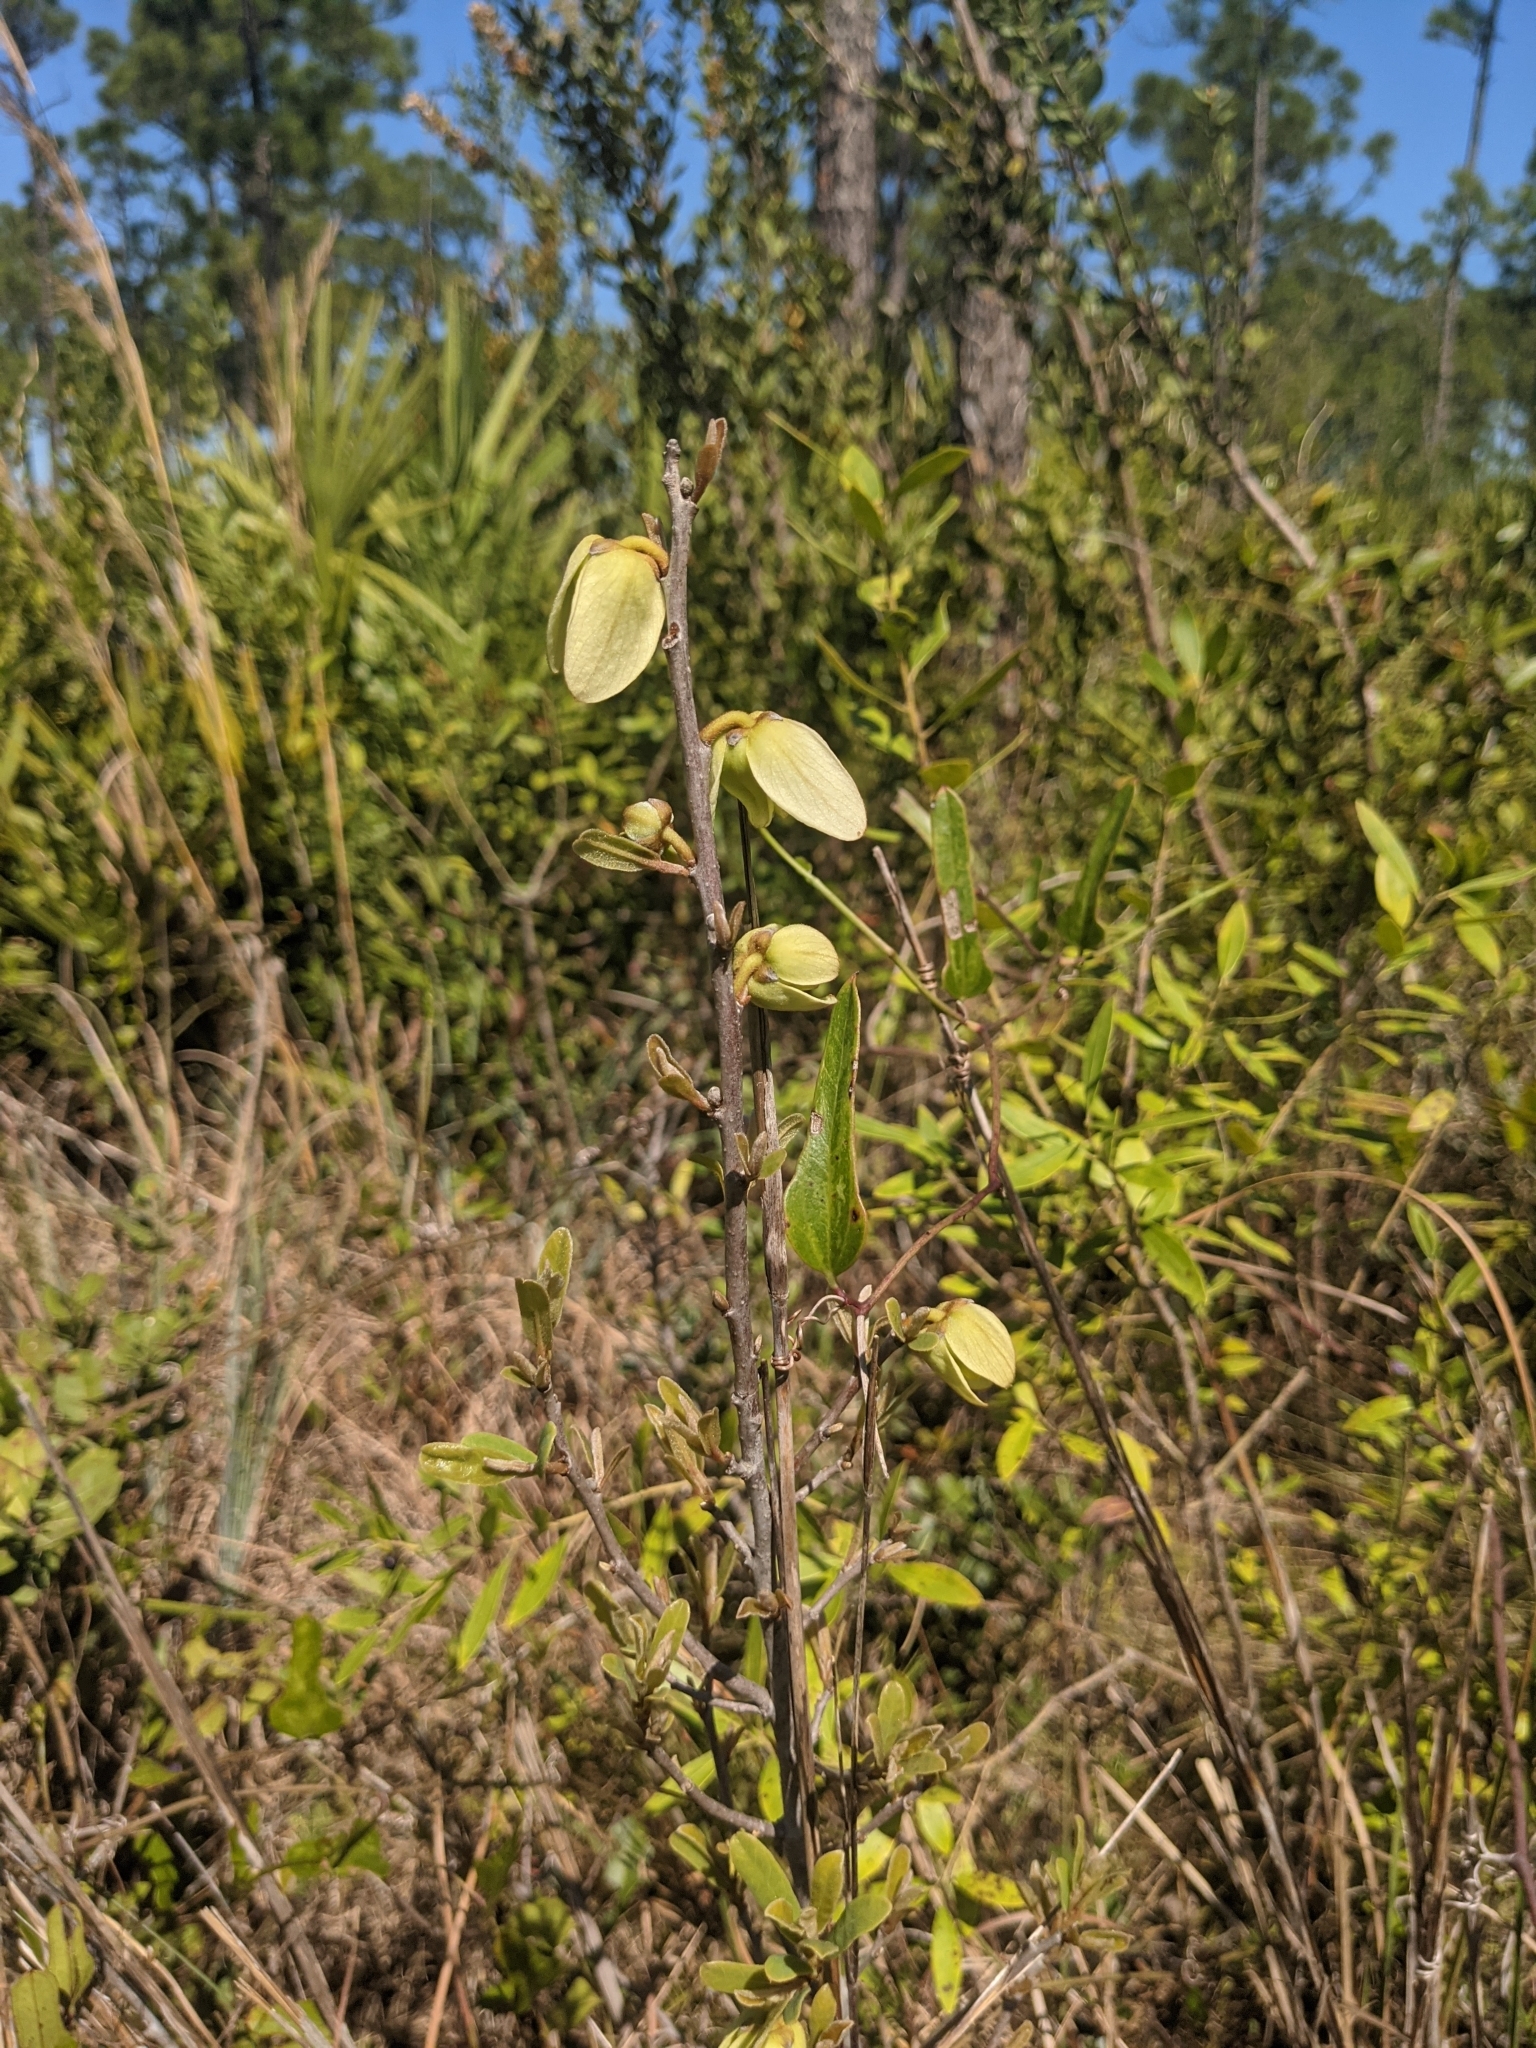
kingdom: Plantae
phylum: Tracheophyta
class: Magnoliopsida
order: Magnoliales
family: Annonaceae
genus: Asimina
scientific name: Asimina reticulata
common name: Flag pawpaw
